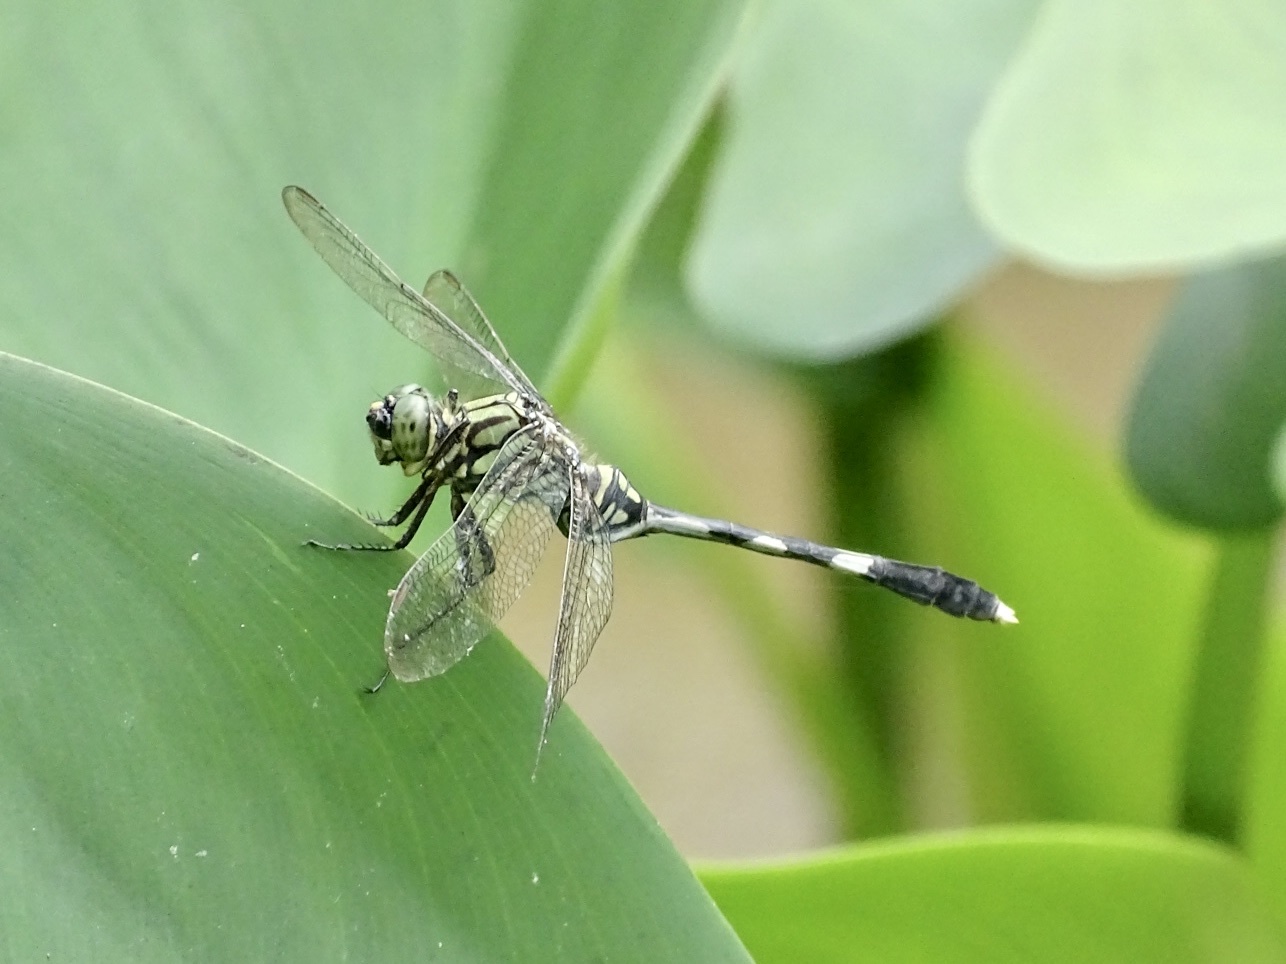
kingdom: Animalia
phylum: Arthropoda
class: Insecta
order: Odonata
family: Libellulidae
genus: Orthetrum
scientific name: Orthetrum sabina
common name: Slender skimmer
